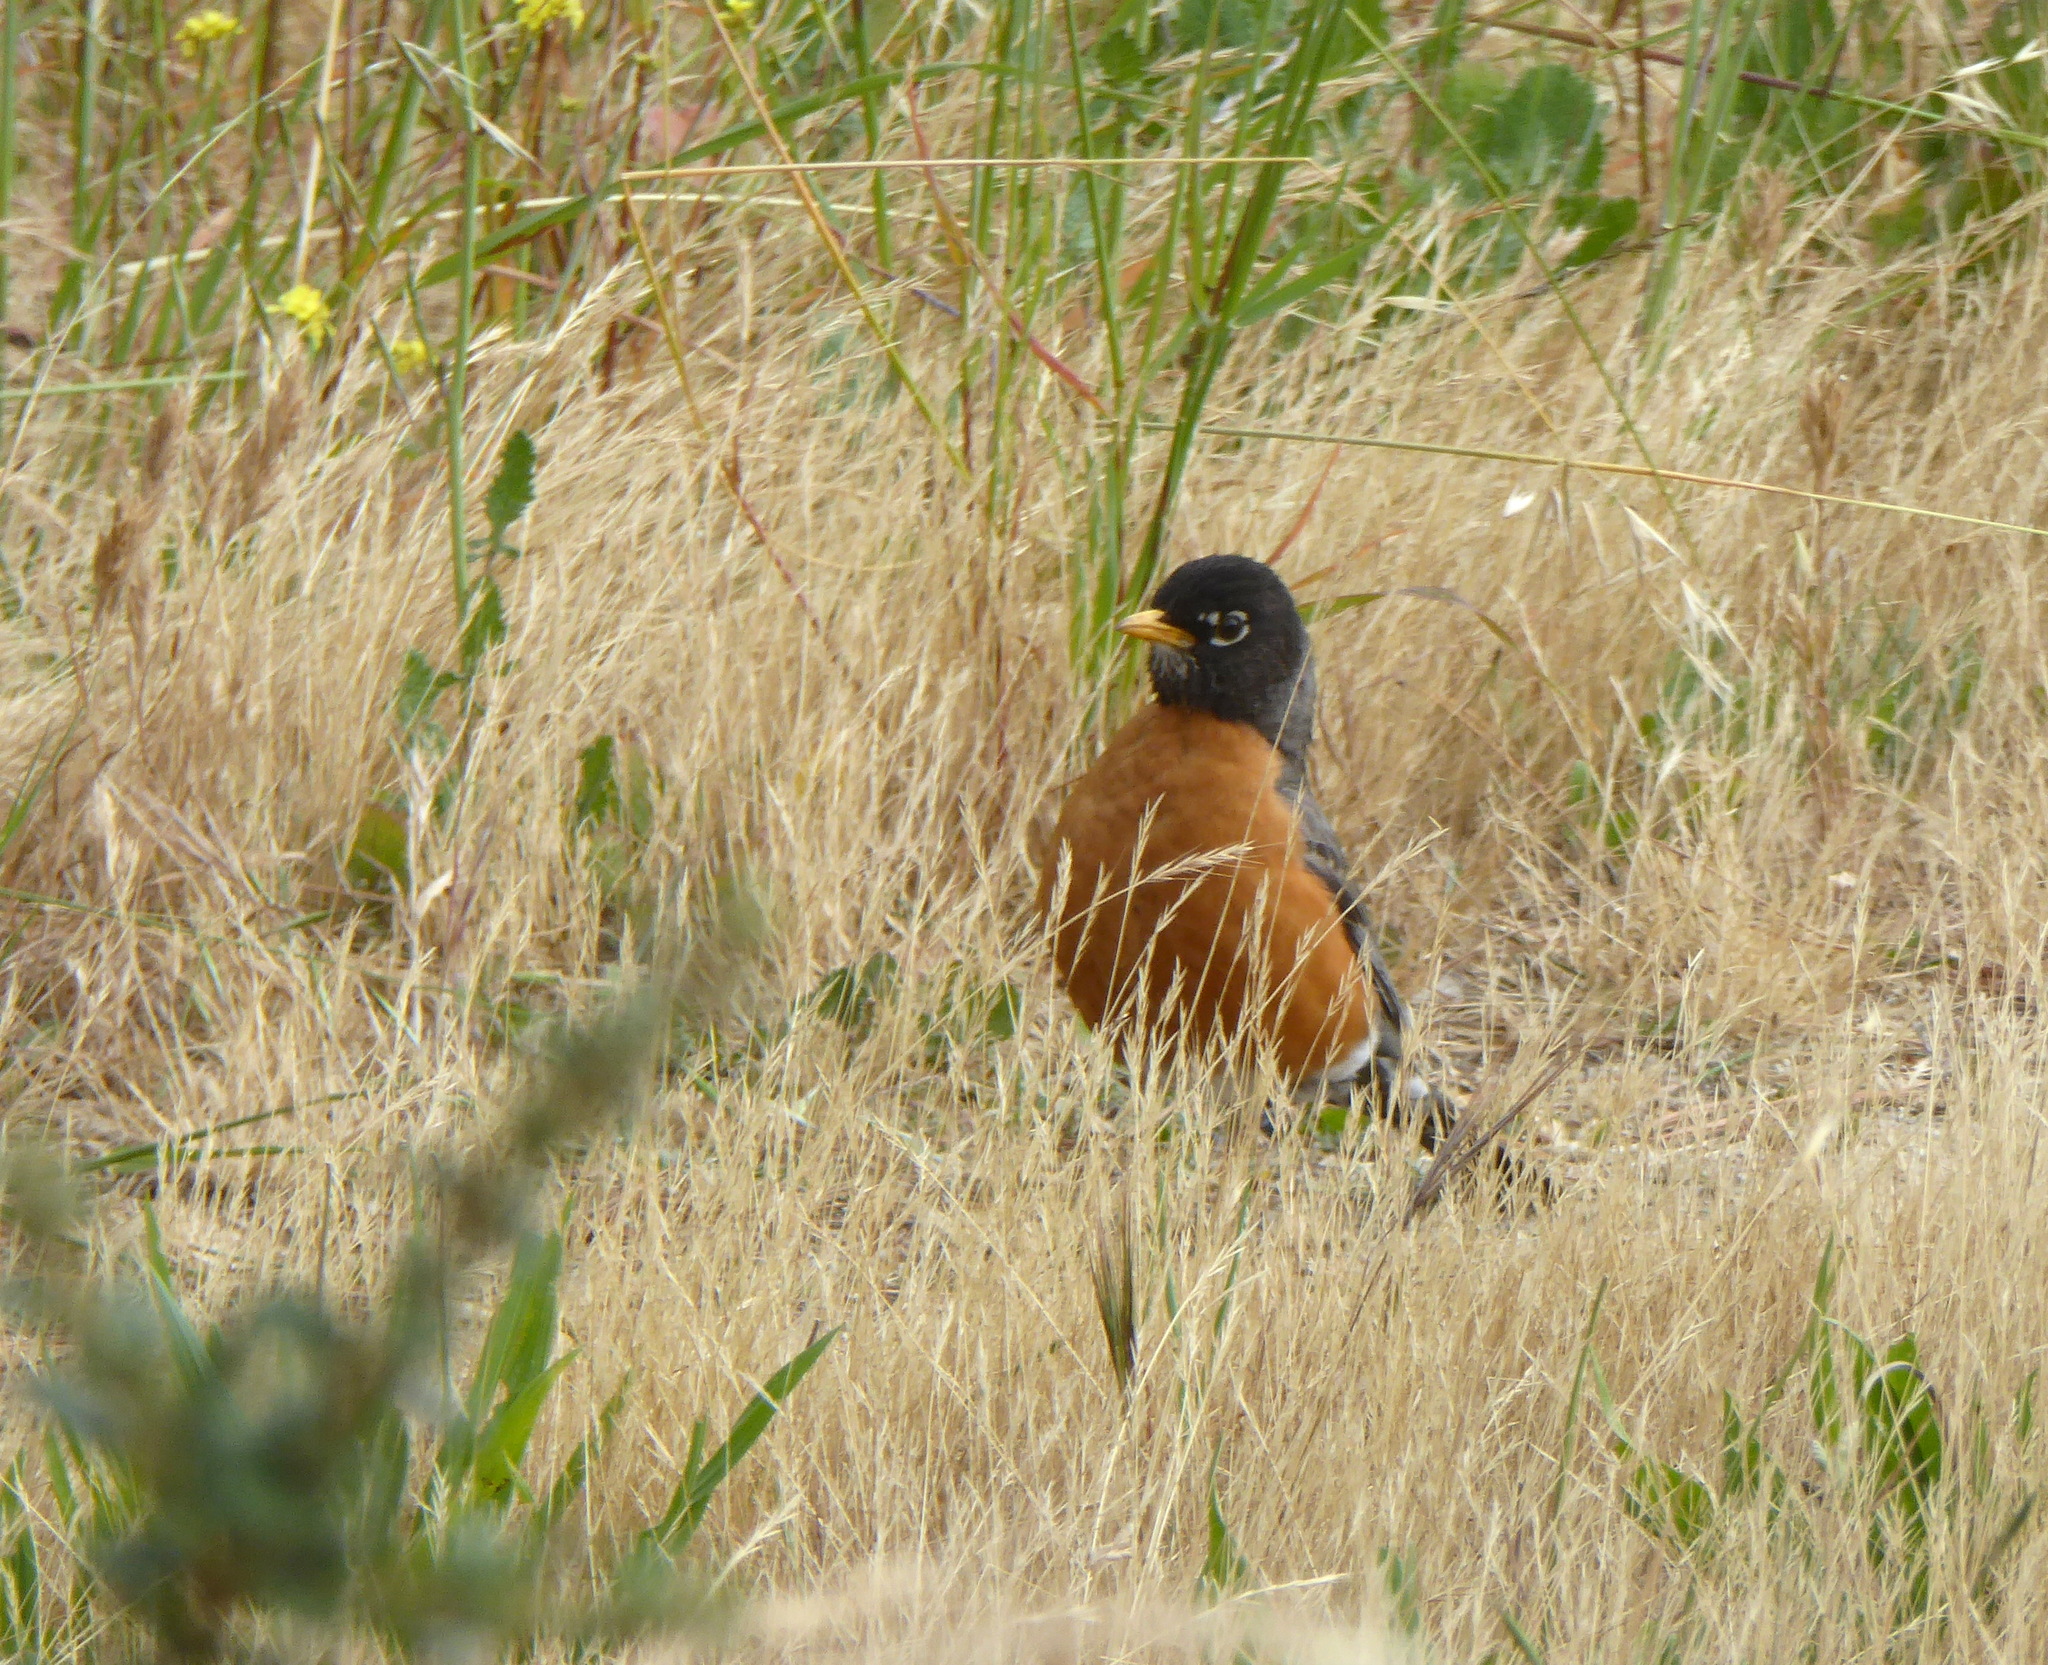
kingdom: Animalia
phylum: Chordata
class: Aves
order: Passeriformes
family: Turdidae
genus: Turdus
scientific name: Turdus migratorius
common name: American robin
